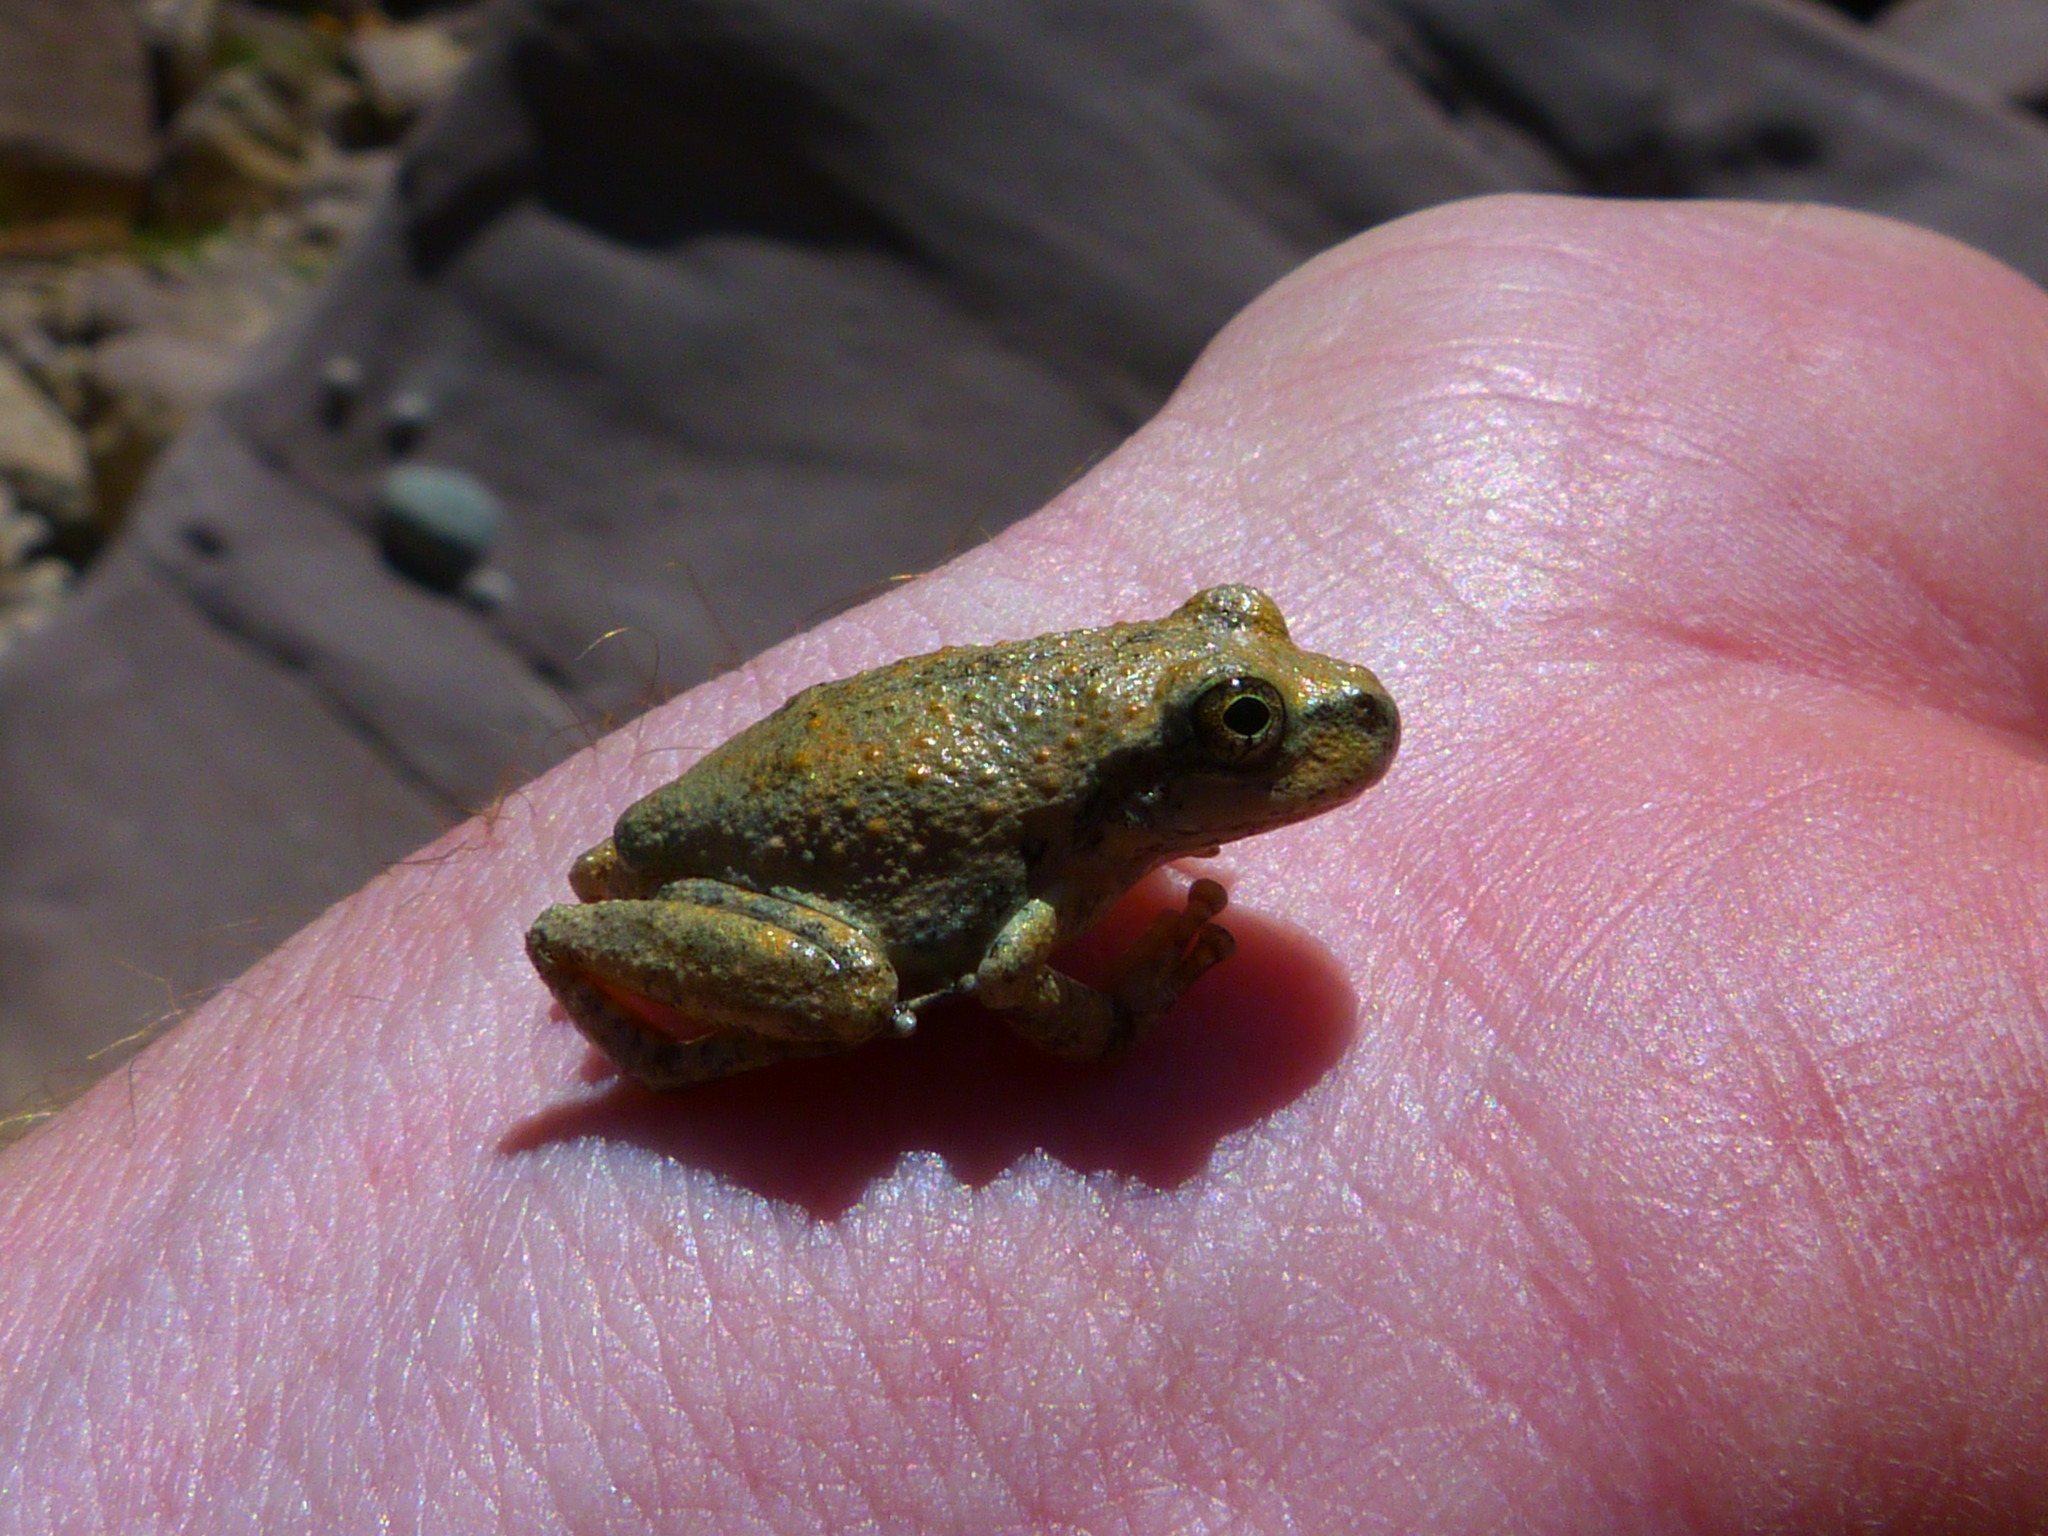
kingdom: Animalia
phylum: Chordata
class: Amphibia
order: Anura
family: Hylidae
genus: Pseudacris
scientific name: Pseudacris regilla
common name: Pacific chorus frog
